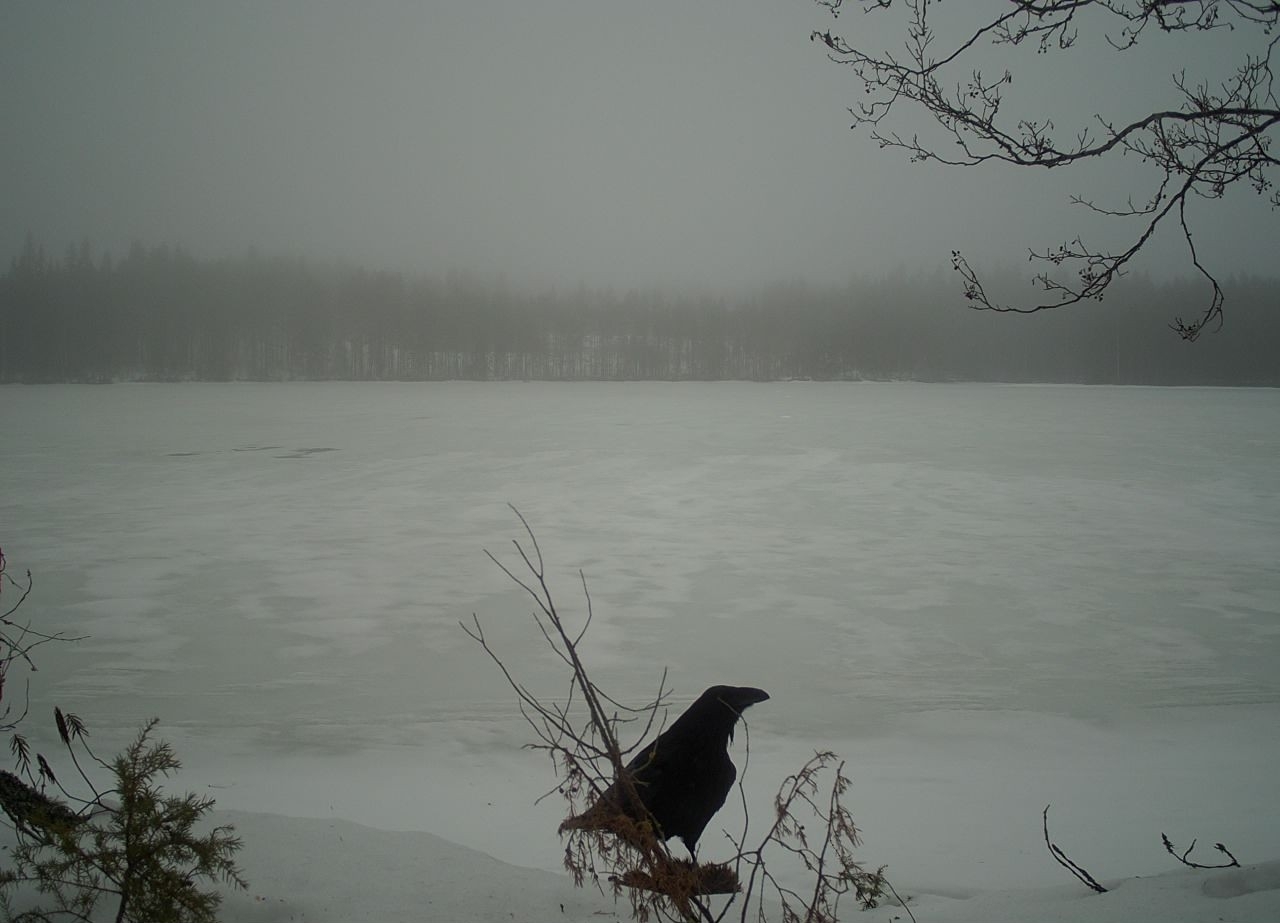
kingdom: Animalia
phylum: Chordata
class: Aves
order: Passeriformes
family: Corvidae
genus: Corvus
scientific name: Corvus corax
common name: Common raven
